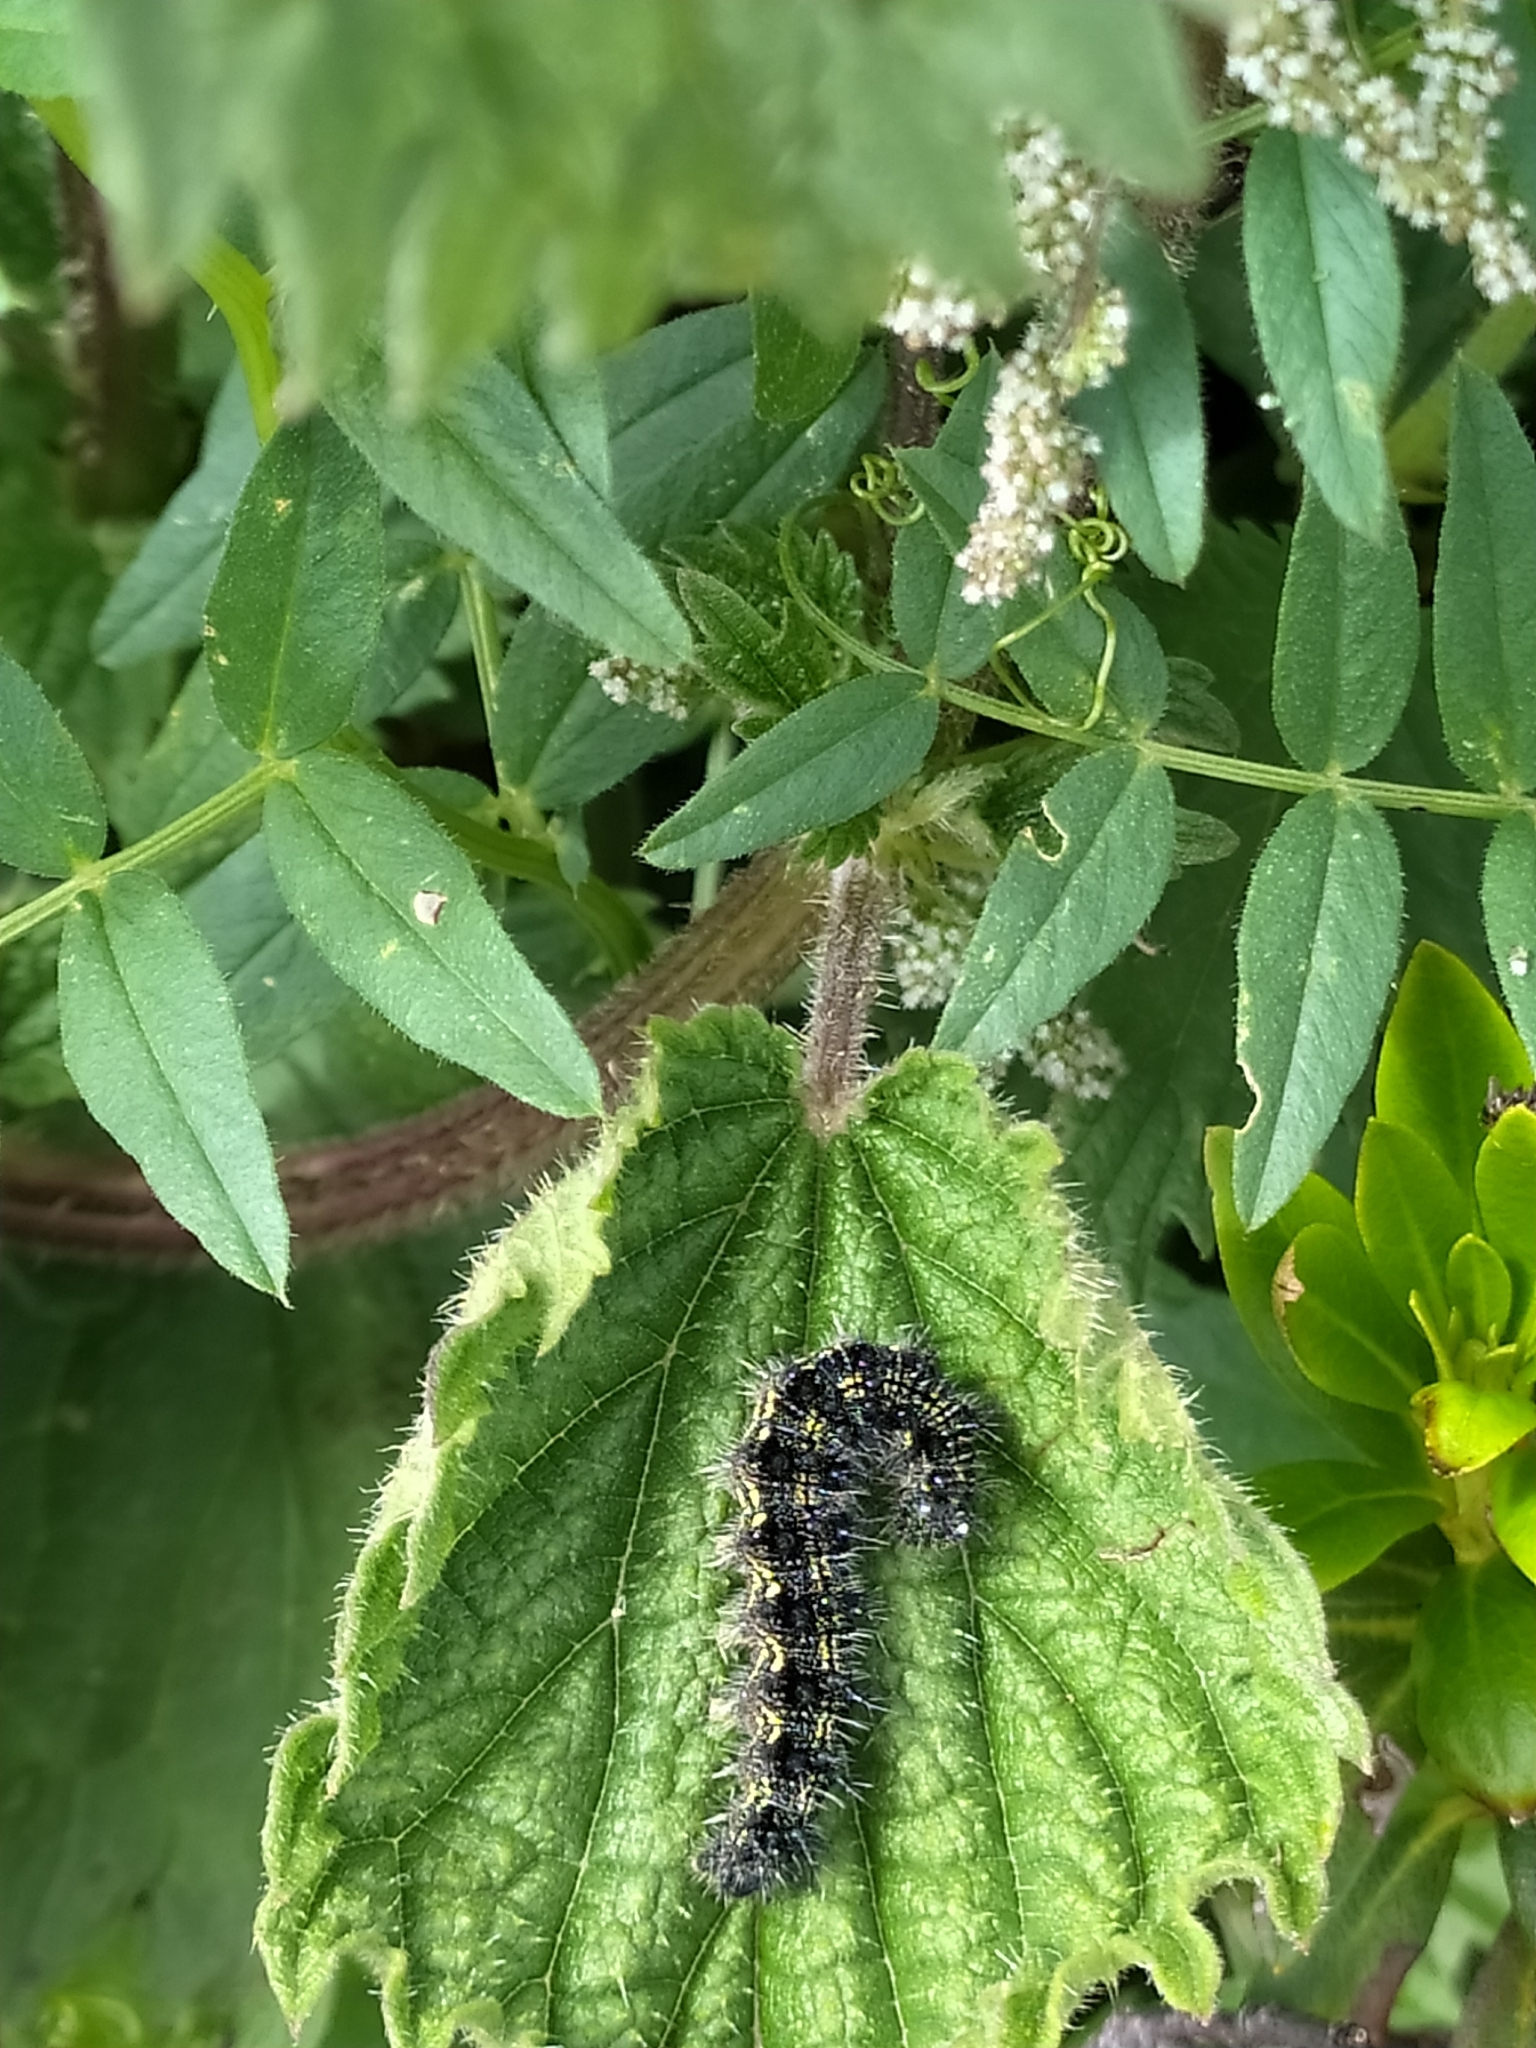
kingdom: Animalia
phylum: Arthropoda
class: Insecta
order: Lepidoptera
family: Nymphalidae
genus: Aglais
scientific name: Aglais urticae
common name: Small tortoiseshell
